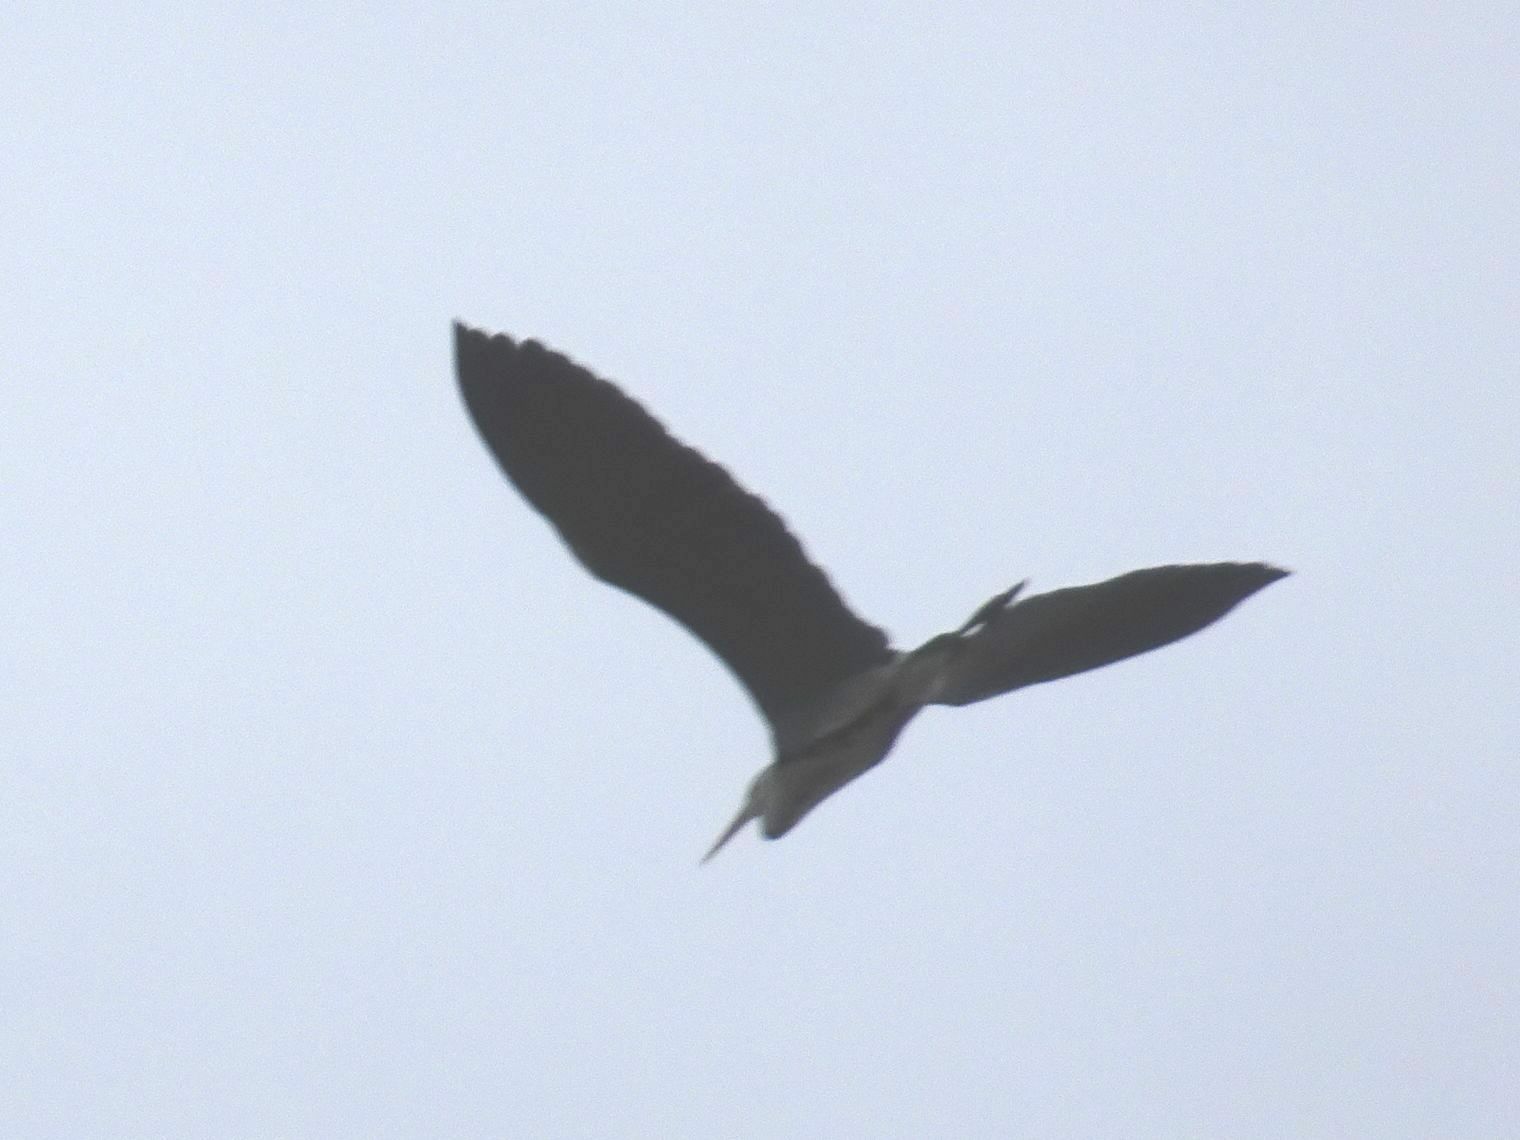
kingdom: Animalia
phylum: Chordata
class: Aves
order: Pelecaniformes
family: Ardeidae
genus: Ardea
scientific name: Ardea cinerea
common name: Grey heron
